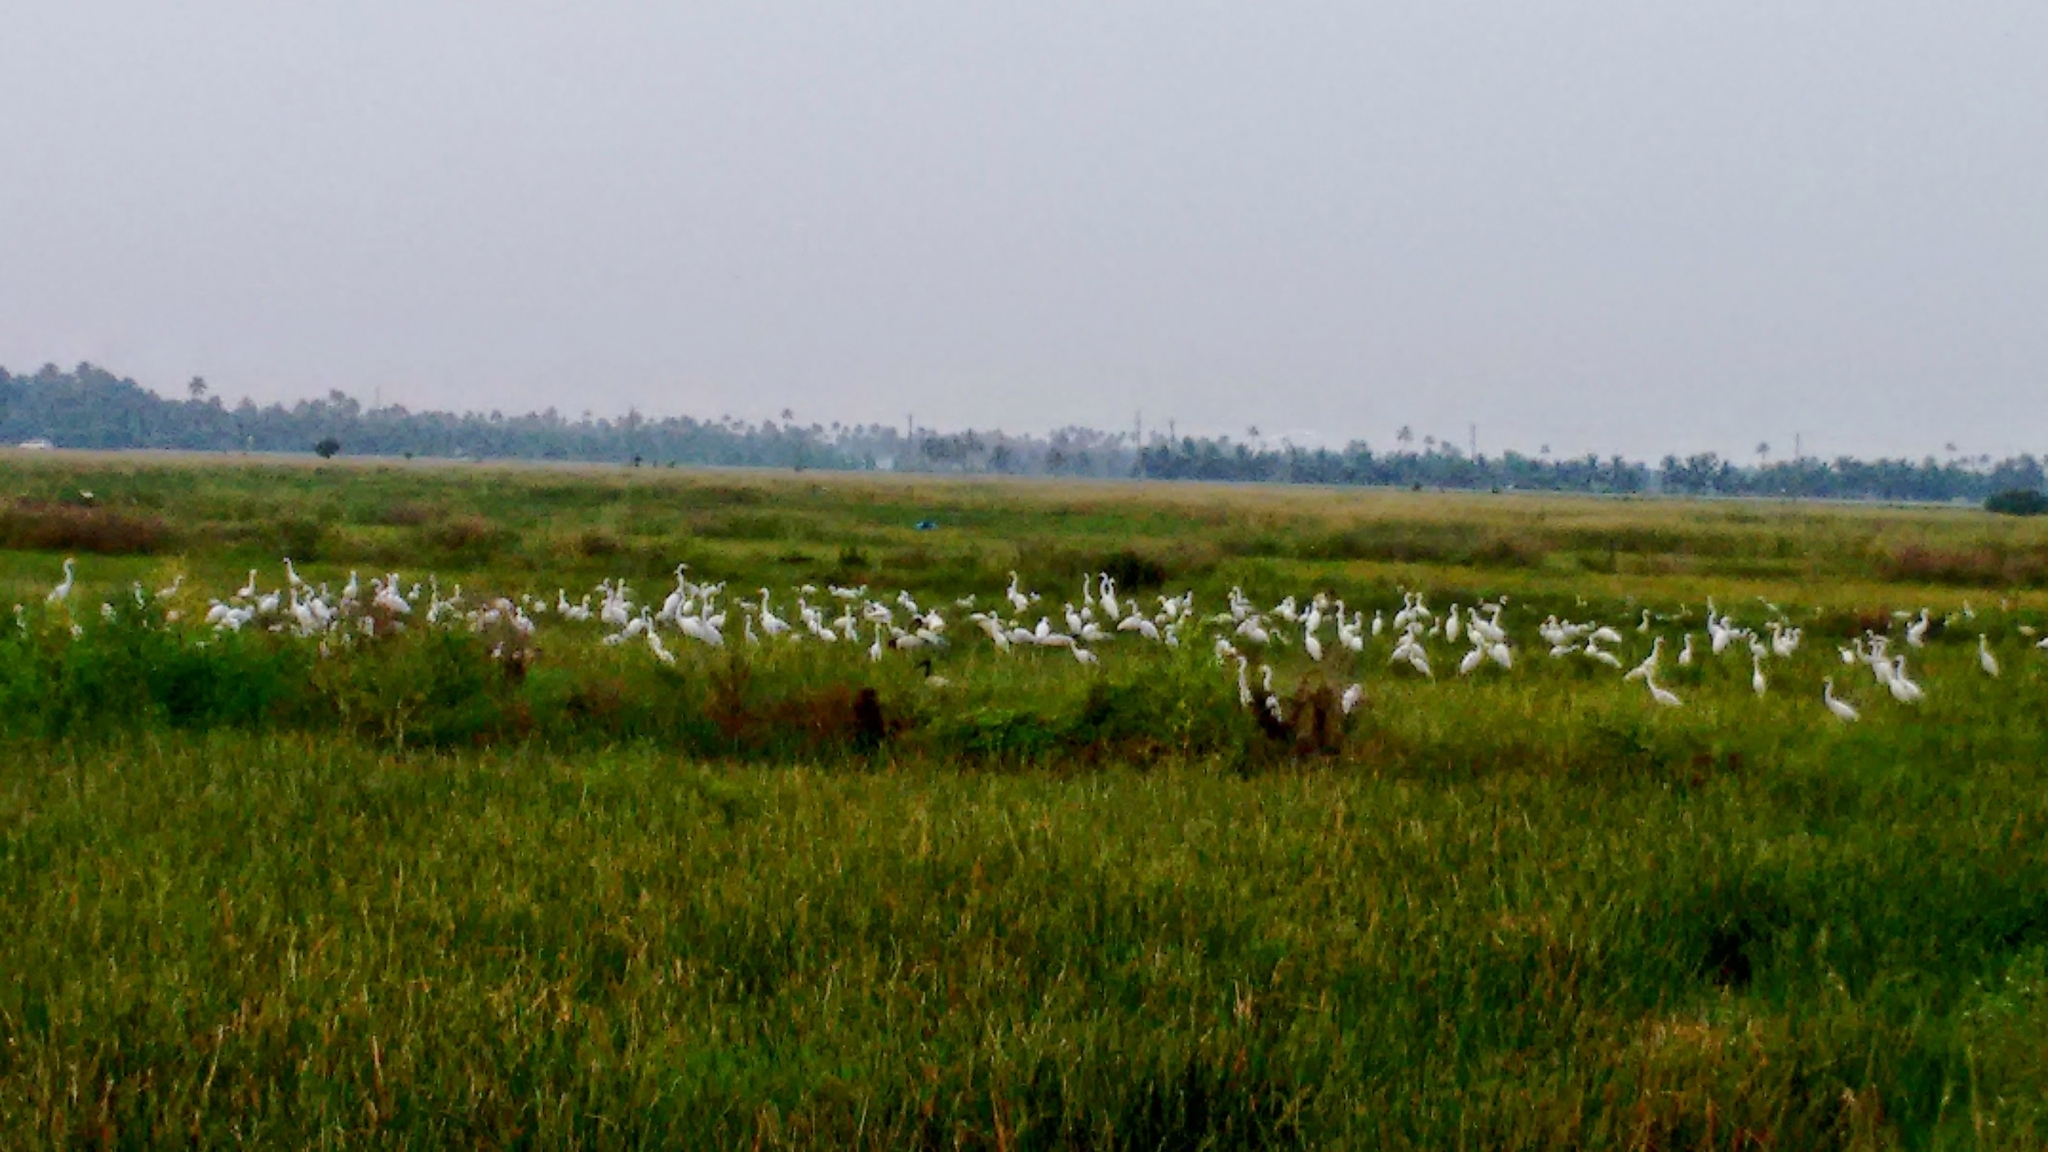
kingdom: Animalia
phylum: Chordata
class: Aves
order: Pelecaniformes
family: Ardeidae
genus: Bubulcus
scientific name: Bubulcus coromandus
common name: Eastern cattle egret
